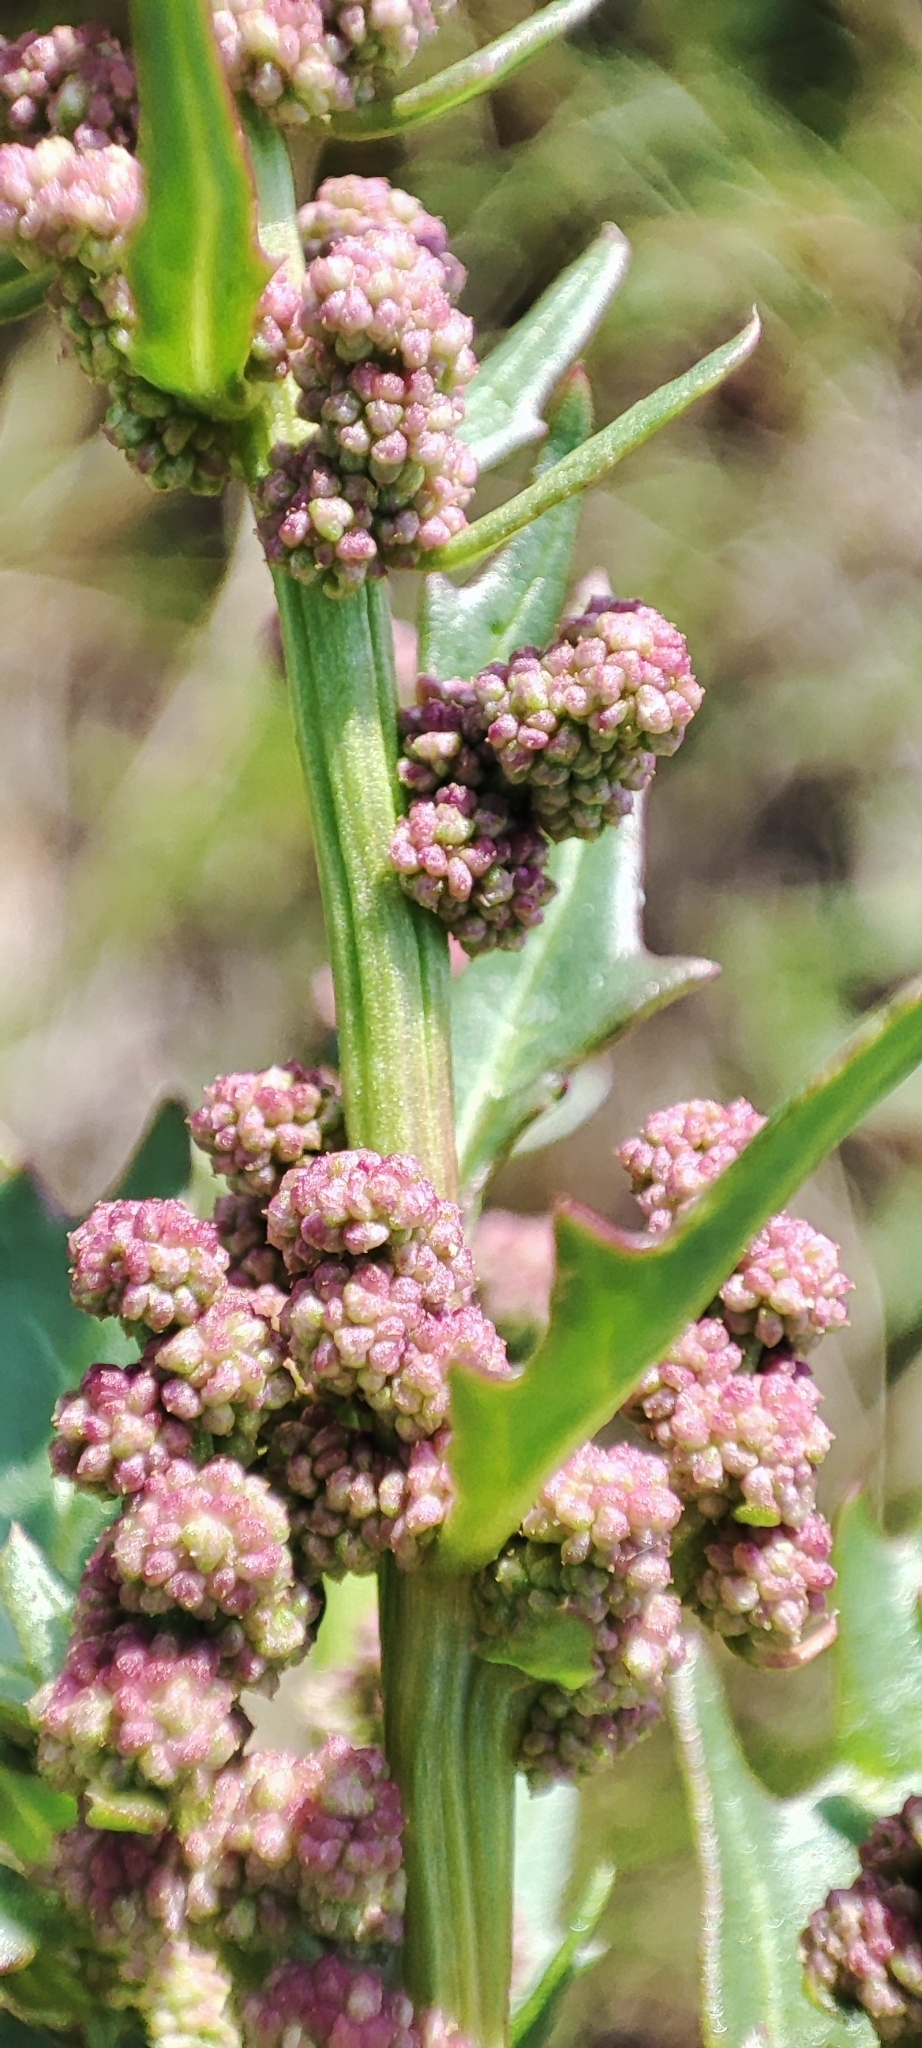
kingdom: Plantae
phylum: Tracheophyta
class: Magnoliopsida
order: Caryophyllales
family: Amaranthaceae
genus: Oxybasis
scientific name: Oxybasis rubra
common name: Red goosefoot
